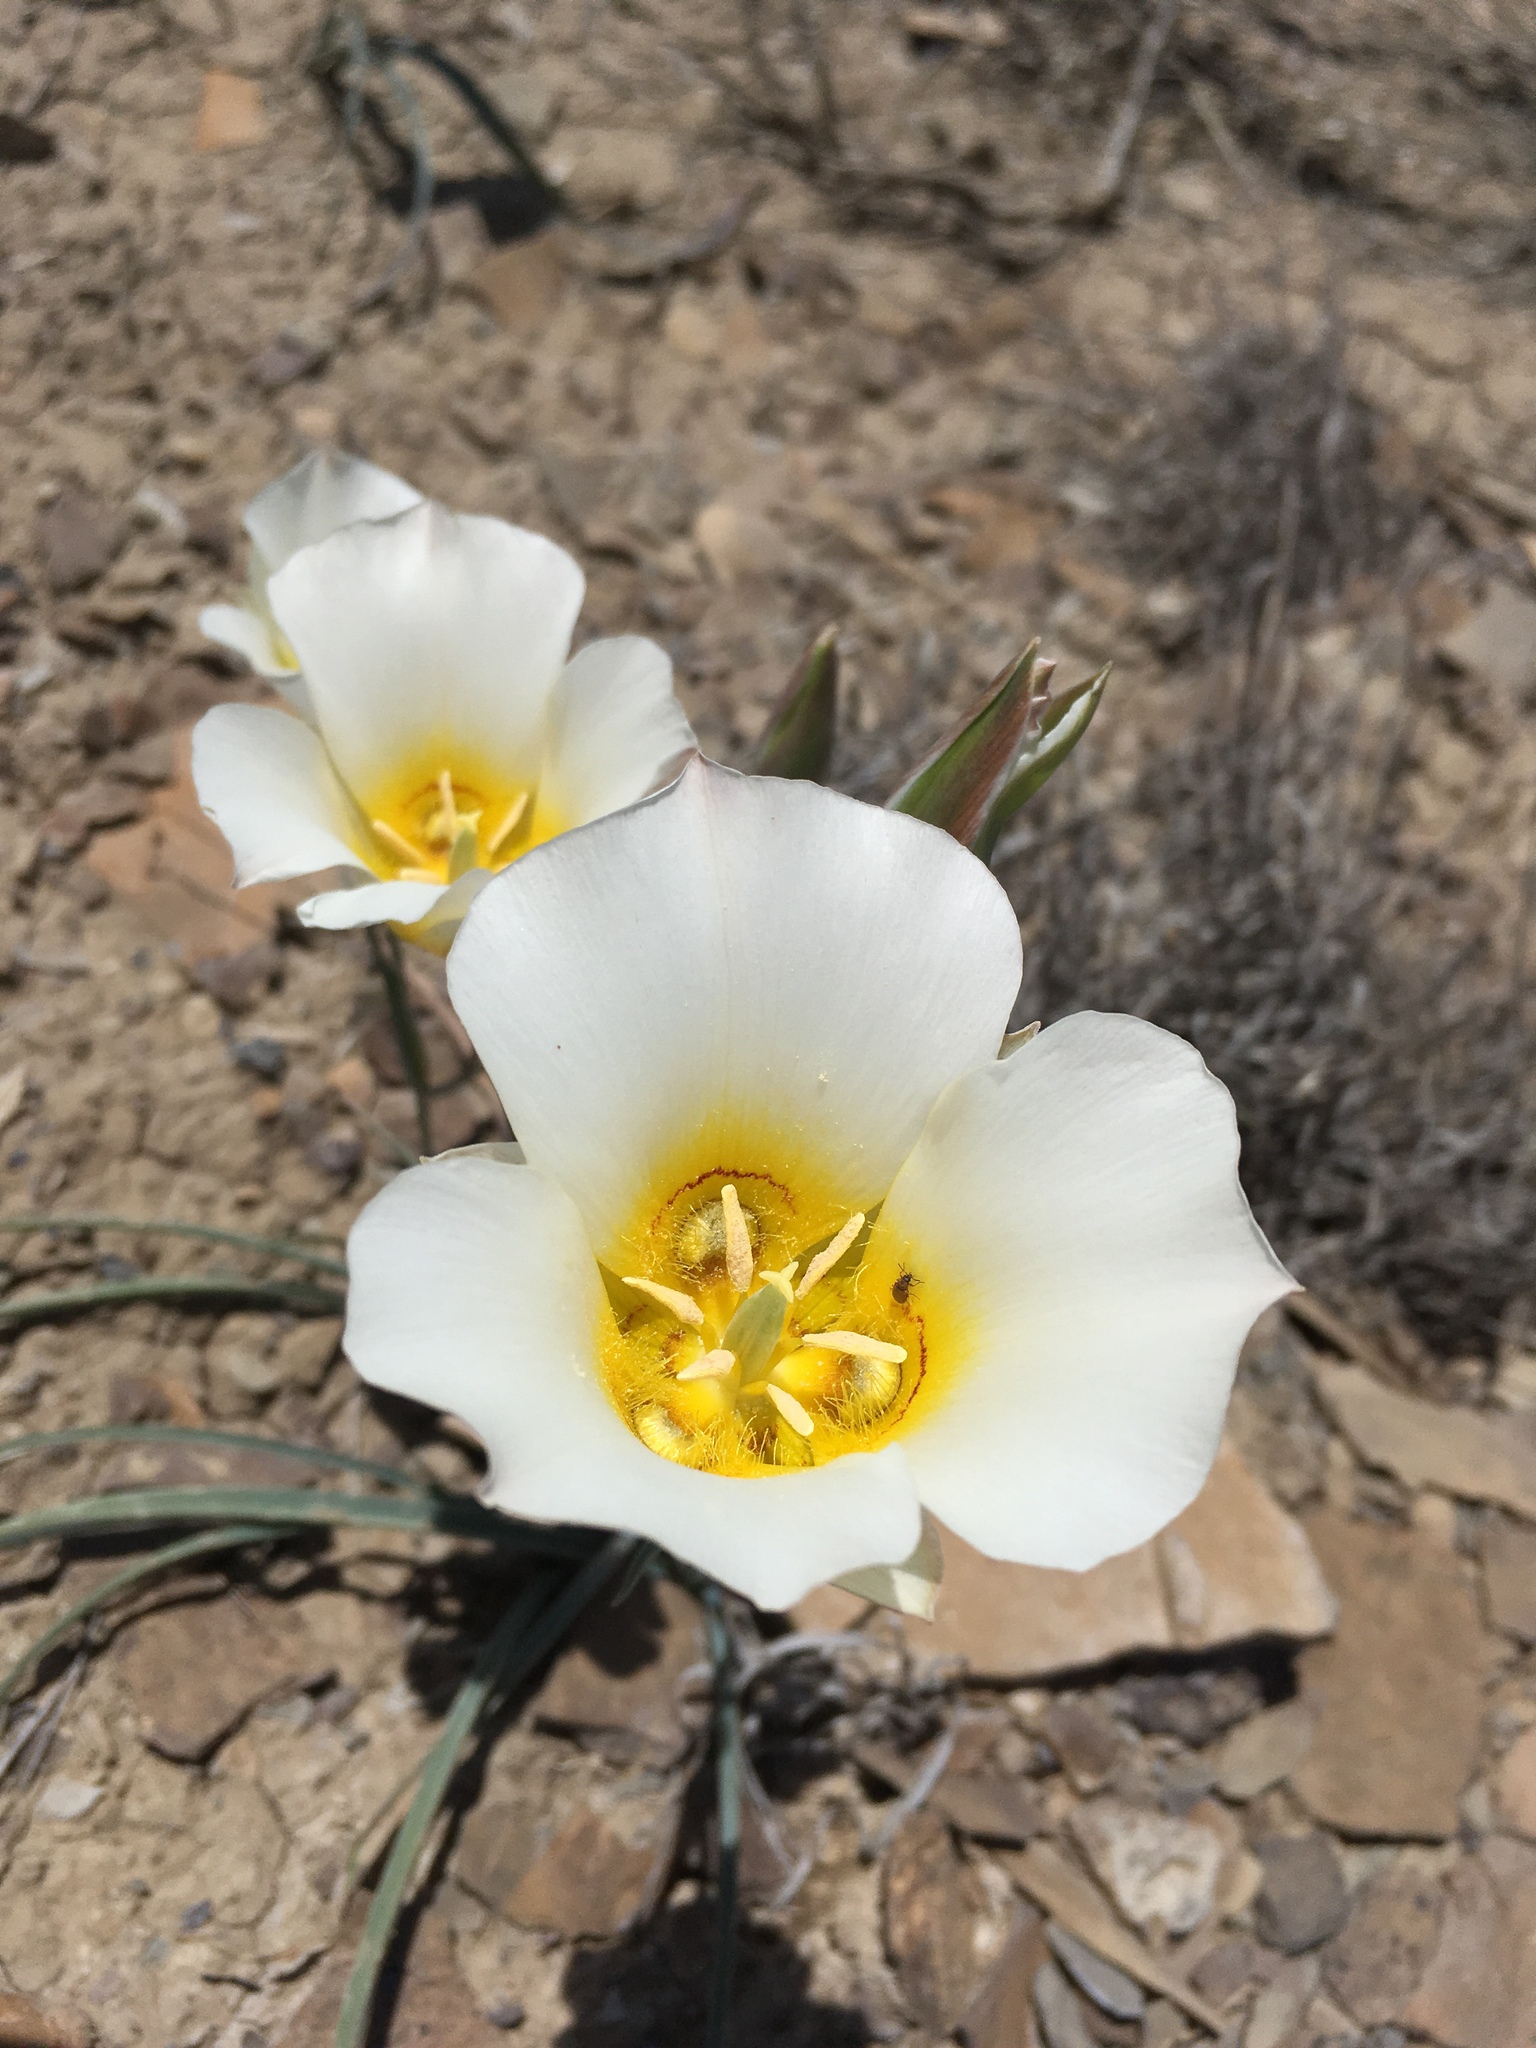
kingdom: Plantae
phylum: Tracheophyta
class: Liliopsida
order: Liliales
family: Liliaceae
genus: Calochortus
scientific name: Calochortus nuttallii
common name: Sego-lily
